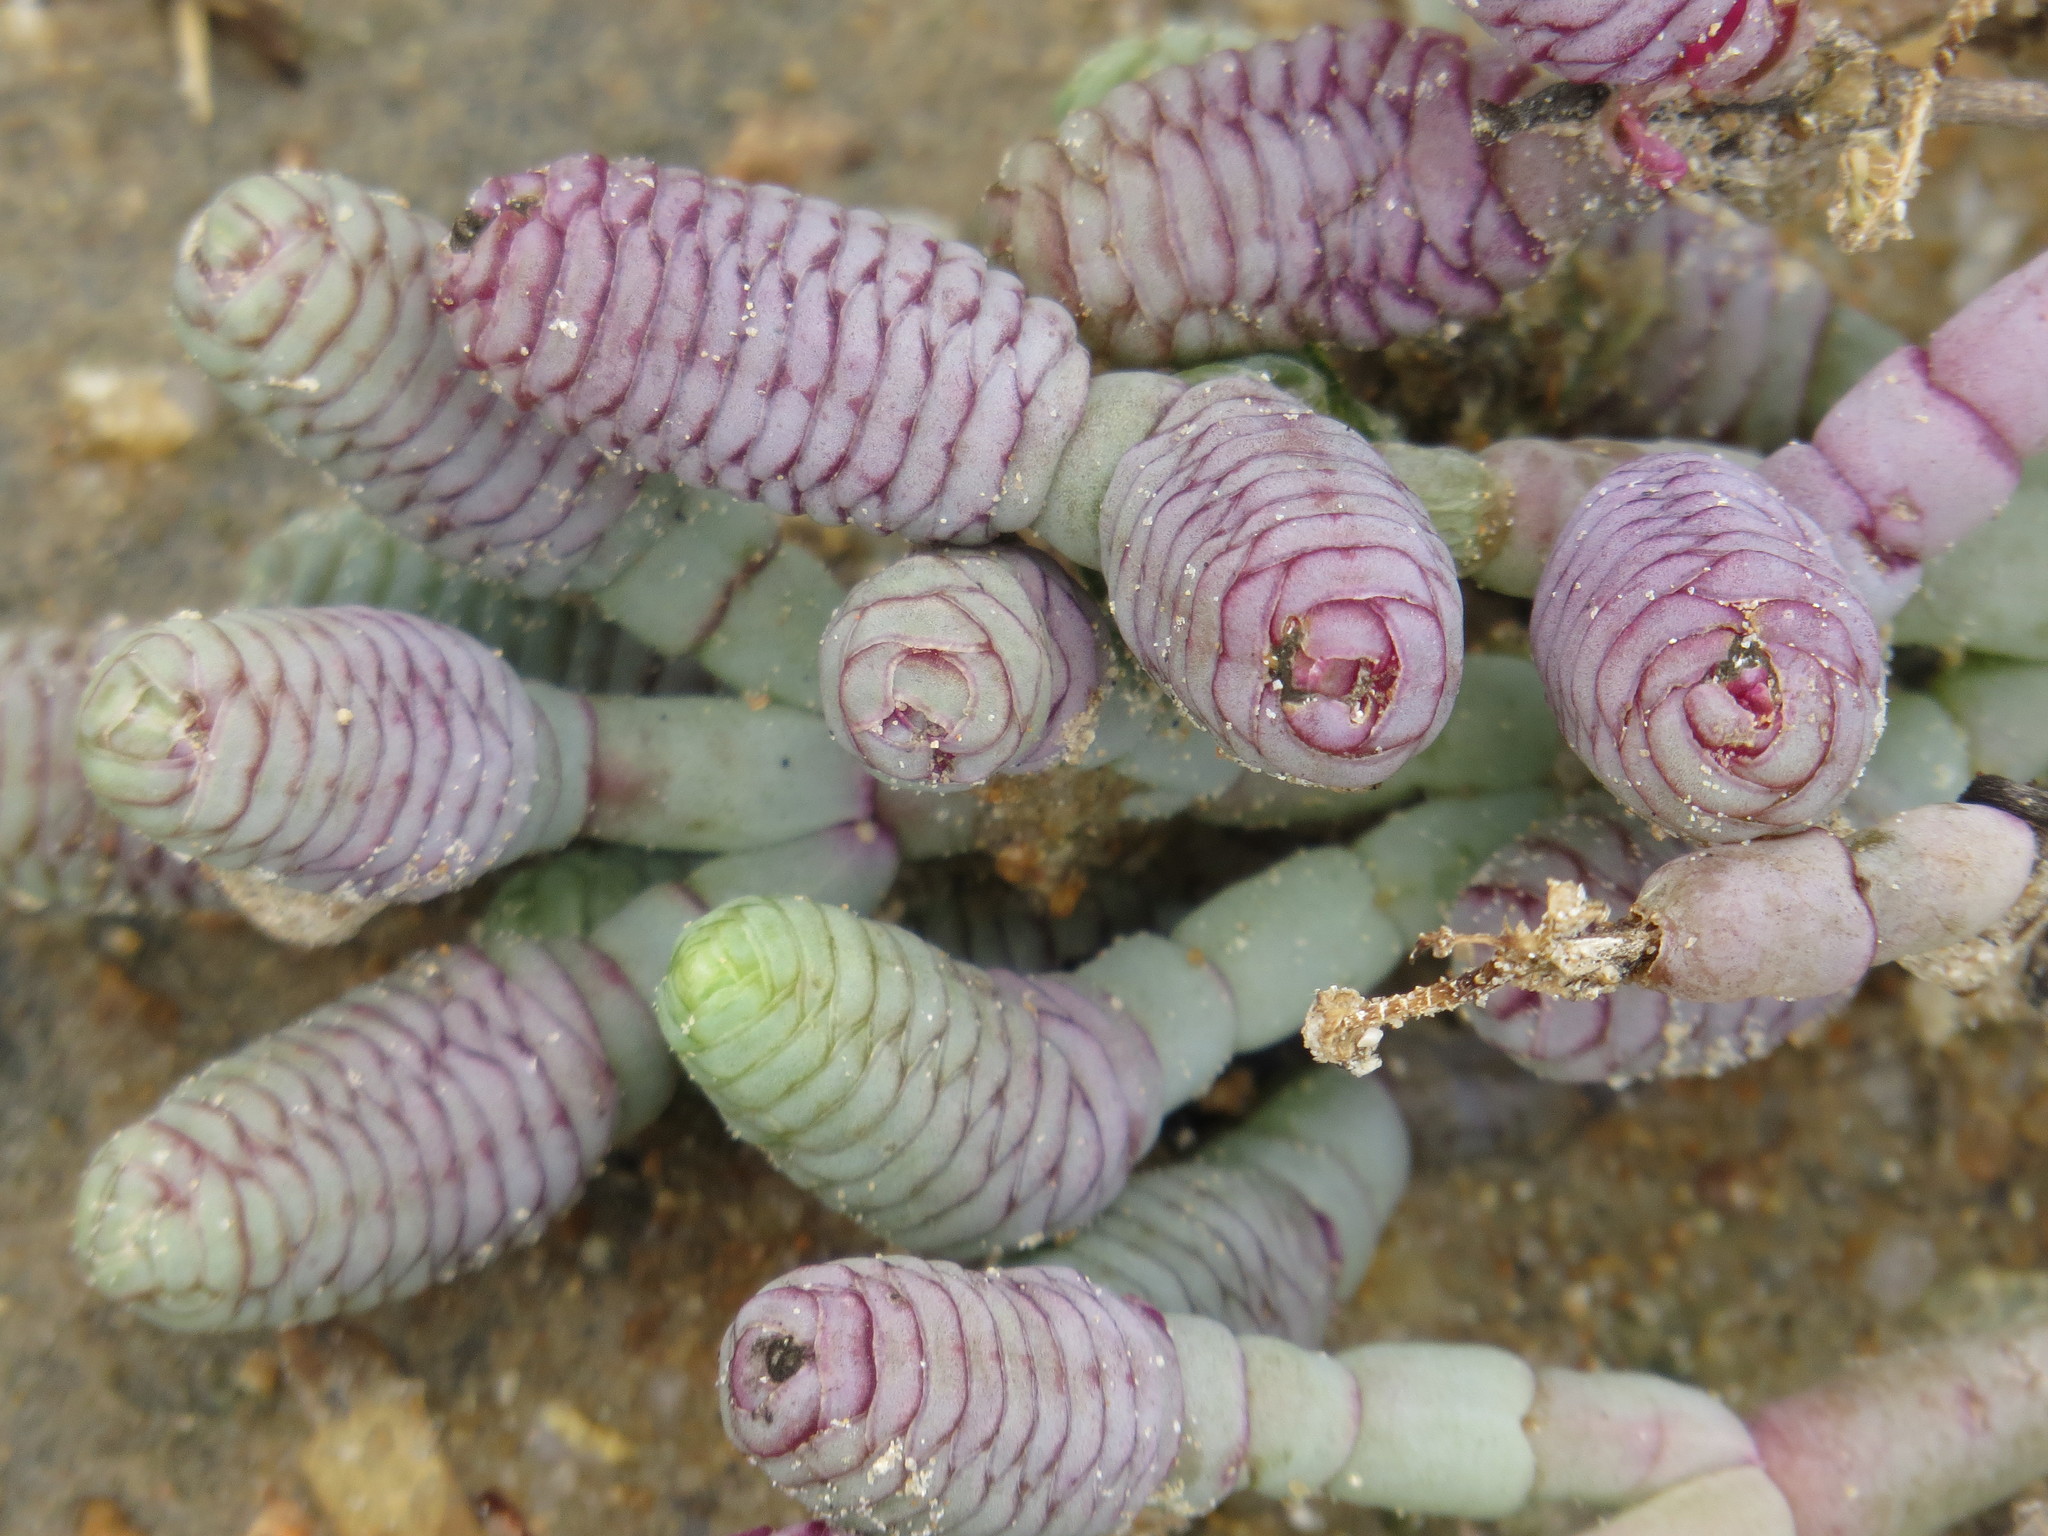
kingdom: Plantae
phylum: Tracheophyta
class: Magnoliopsida
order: Caryophyllales
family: Amaranthaceae
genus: Tecticornia
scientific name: Tecticornia australasica
